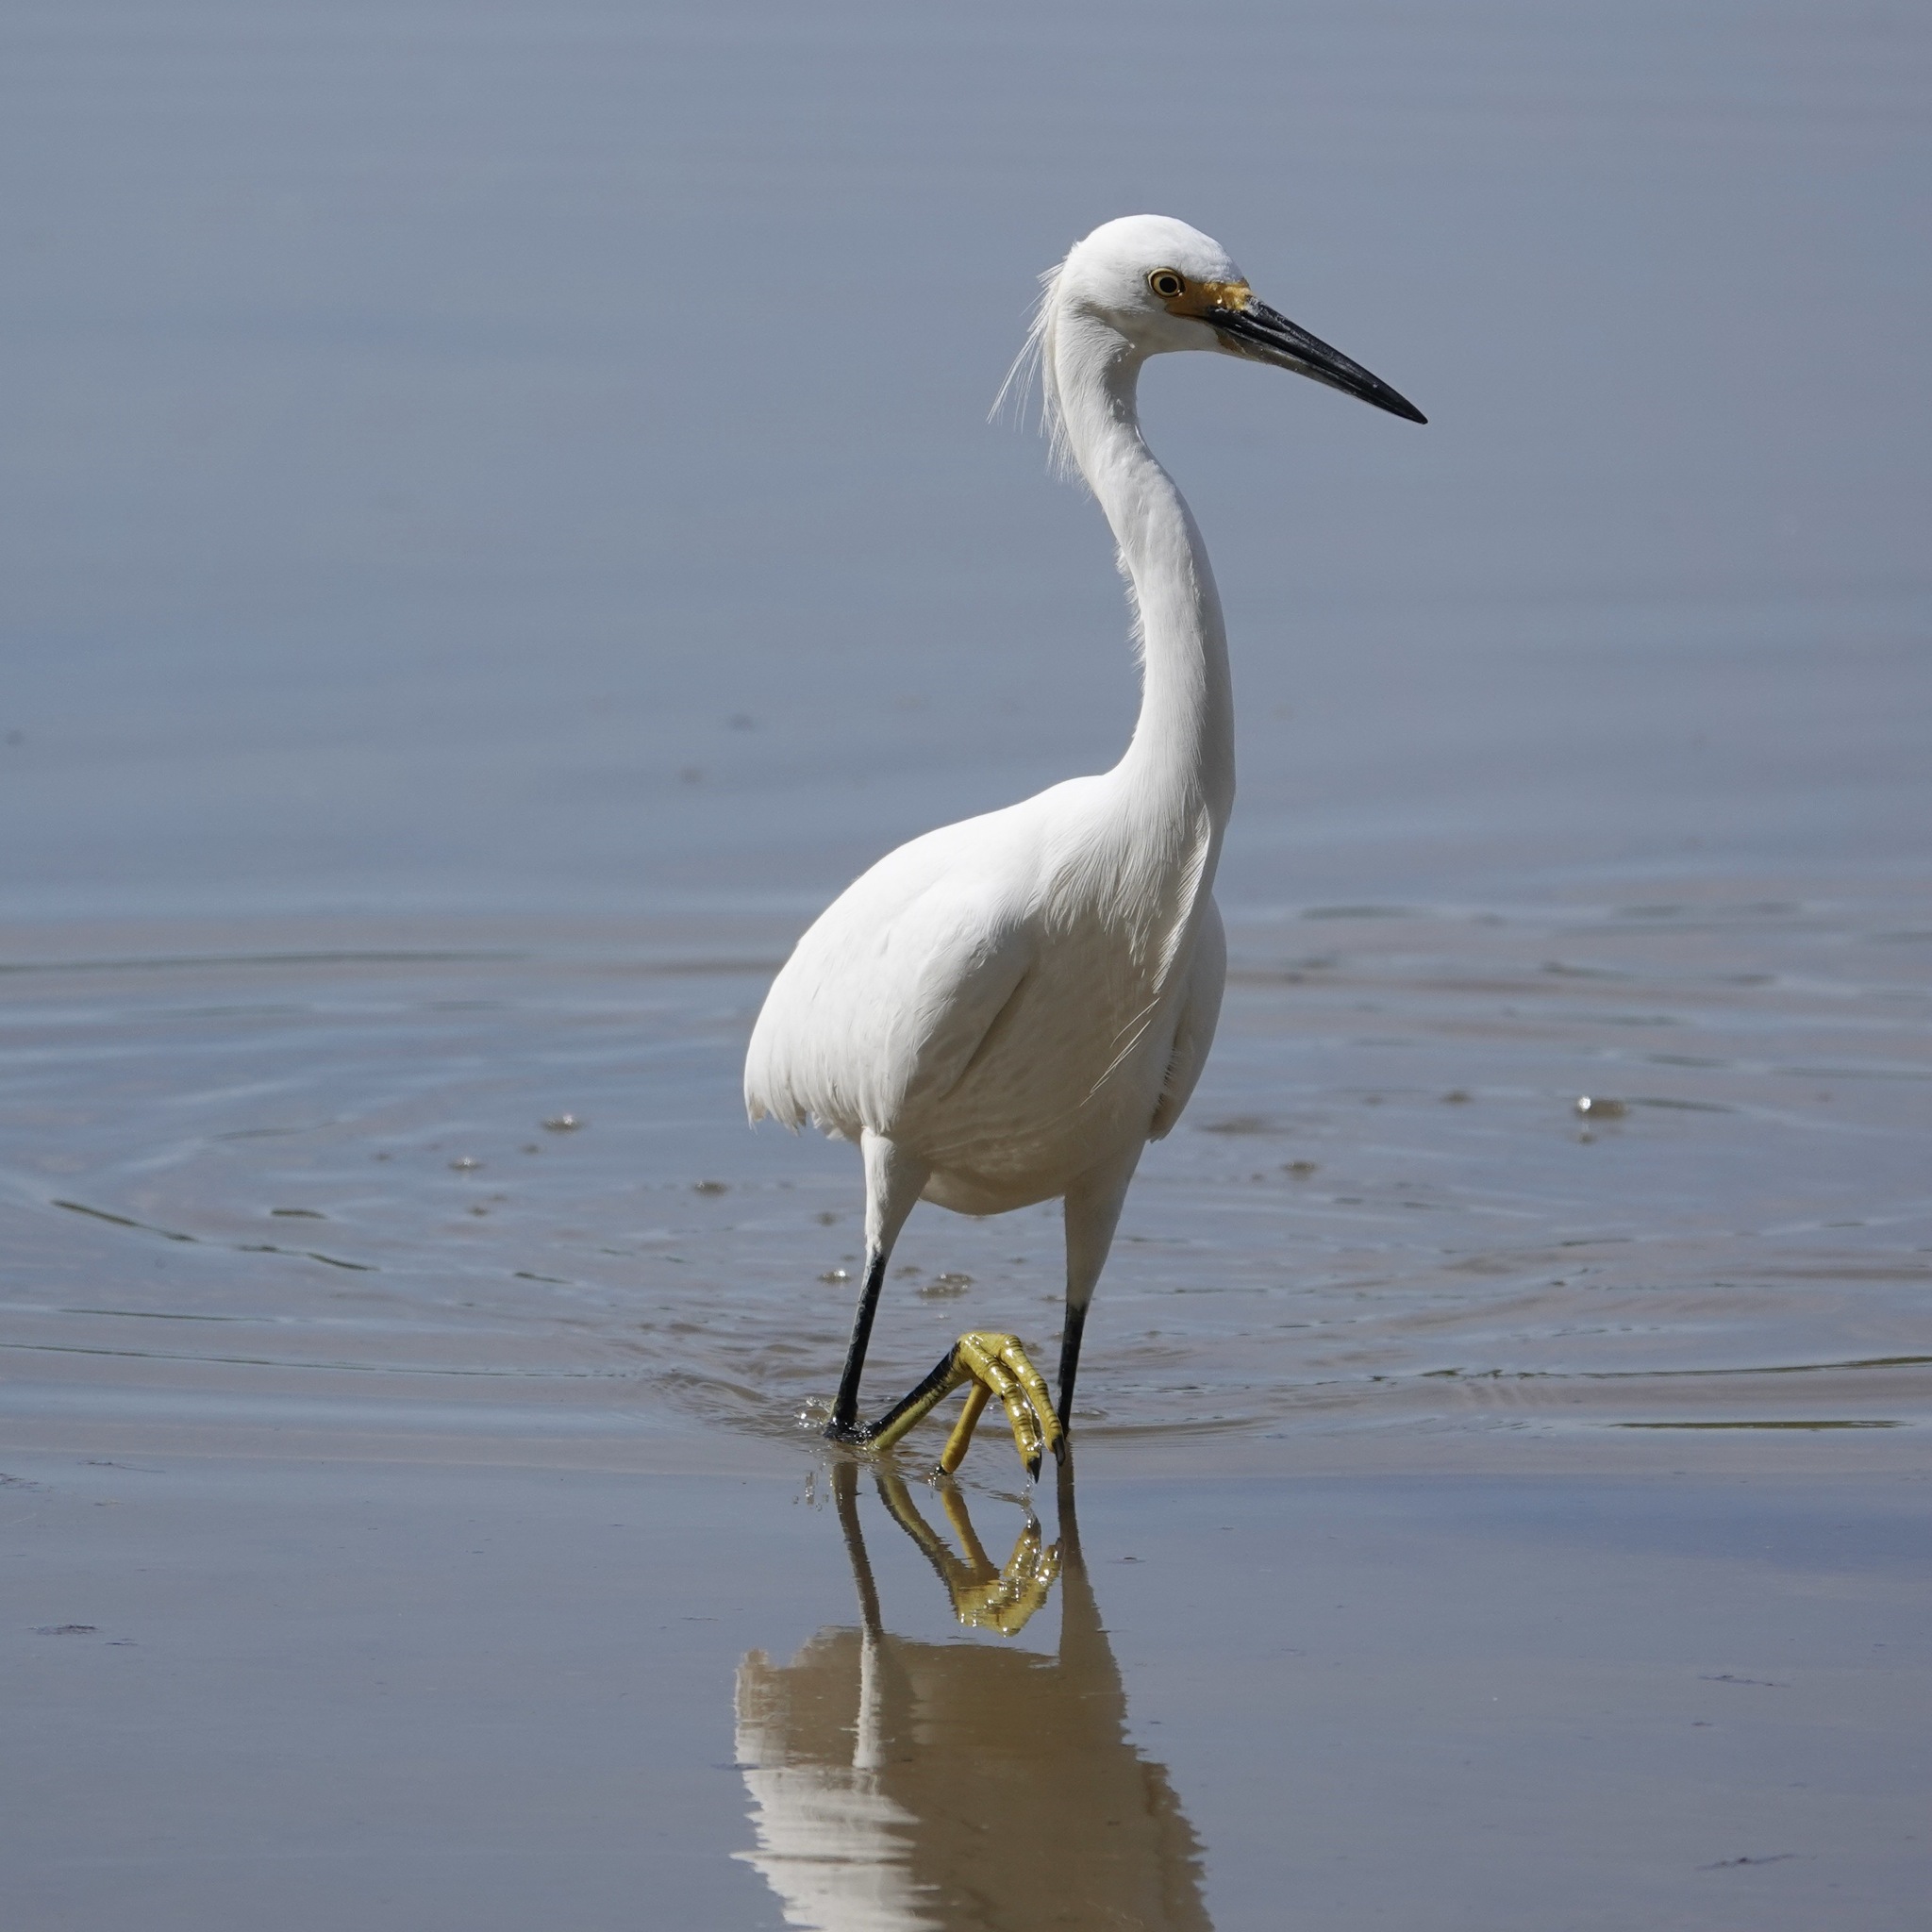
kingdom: Animalia
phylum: Chordata
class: Aves
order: Pelecaniformes
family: Ardeidae
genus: Egretta
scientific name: Egretta thula
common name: Snowy egret
